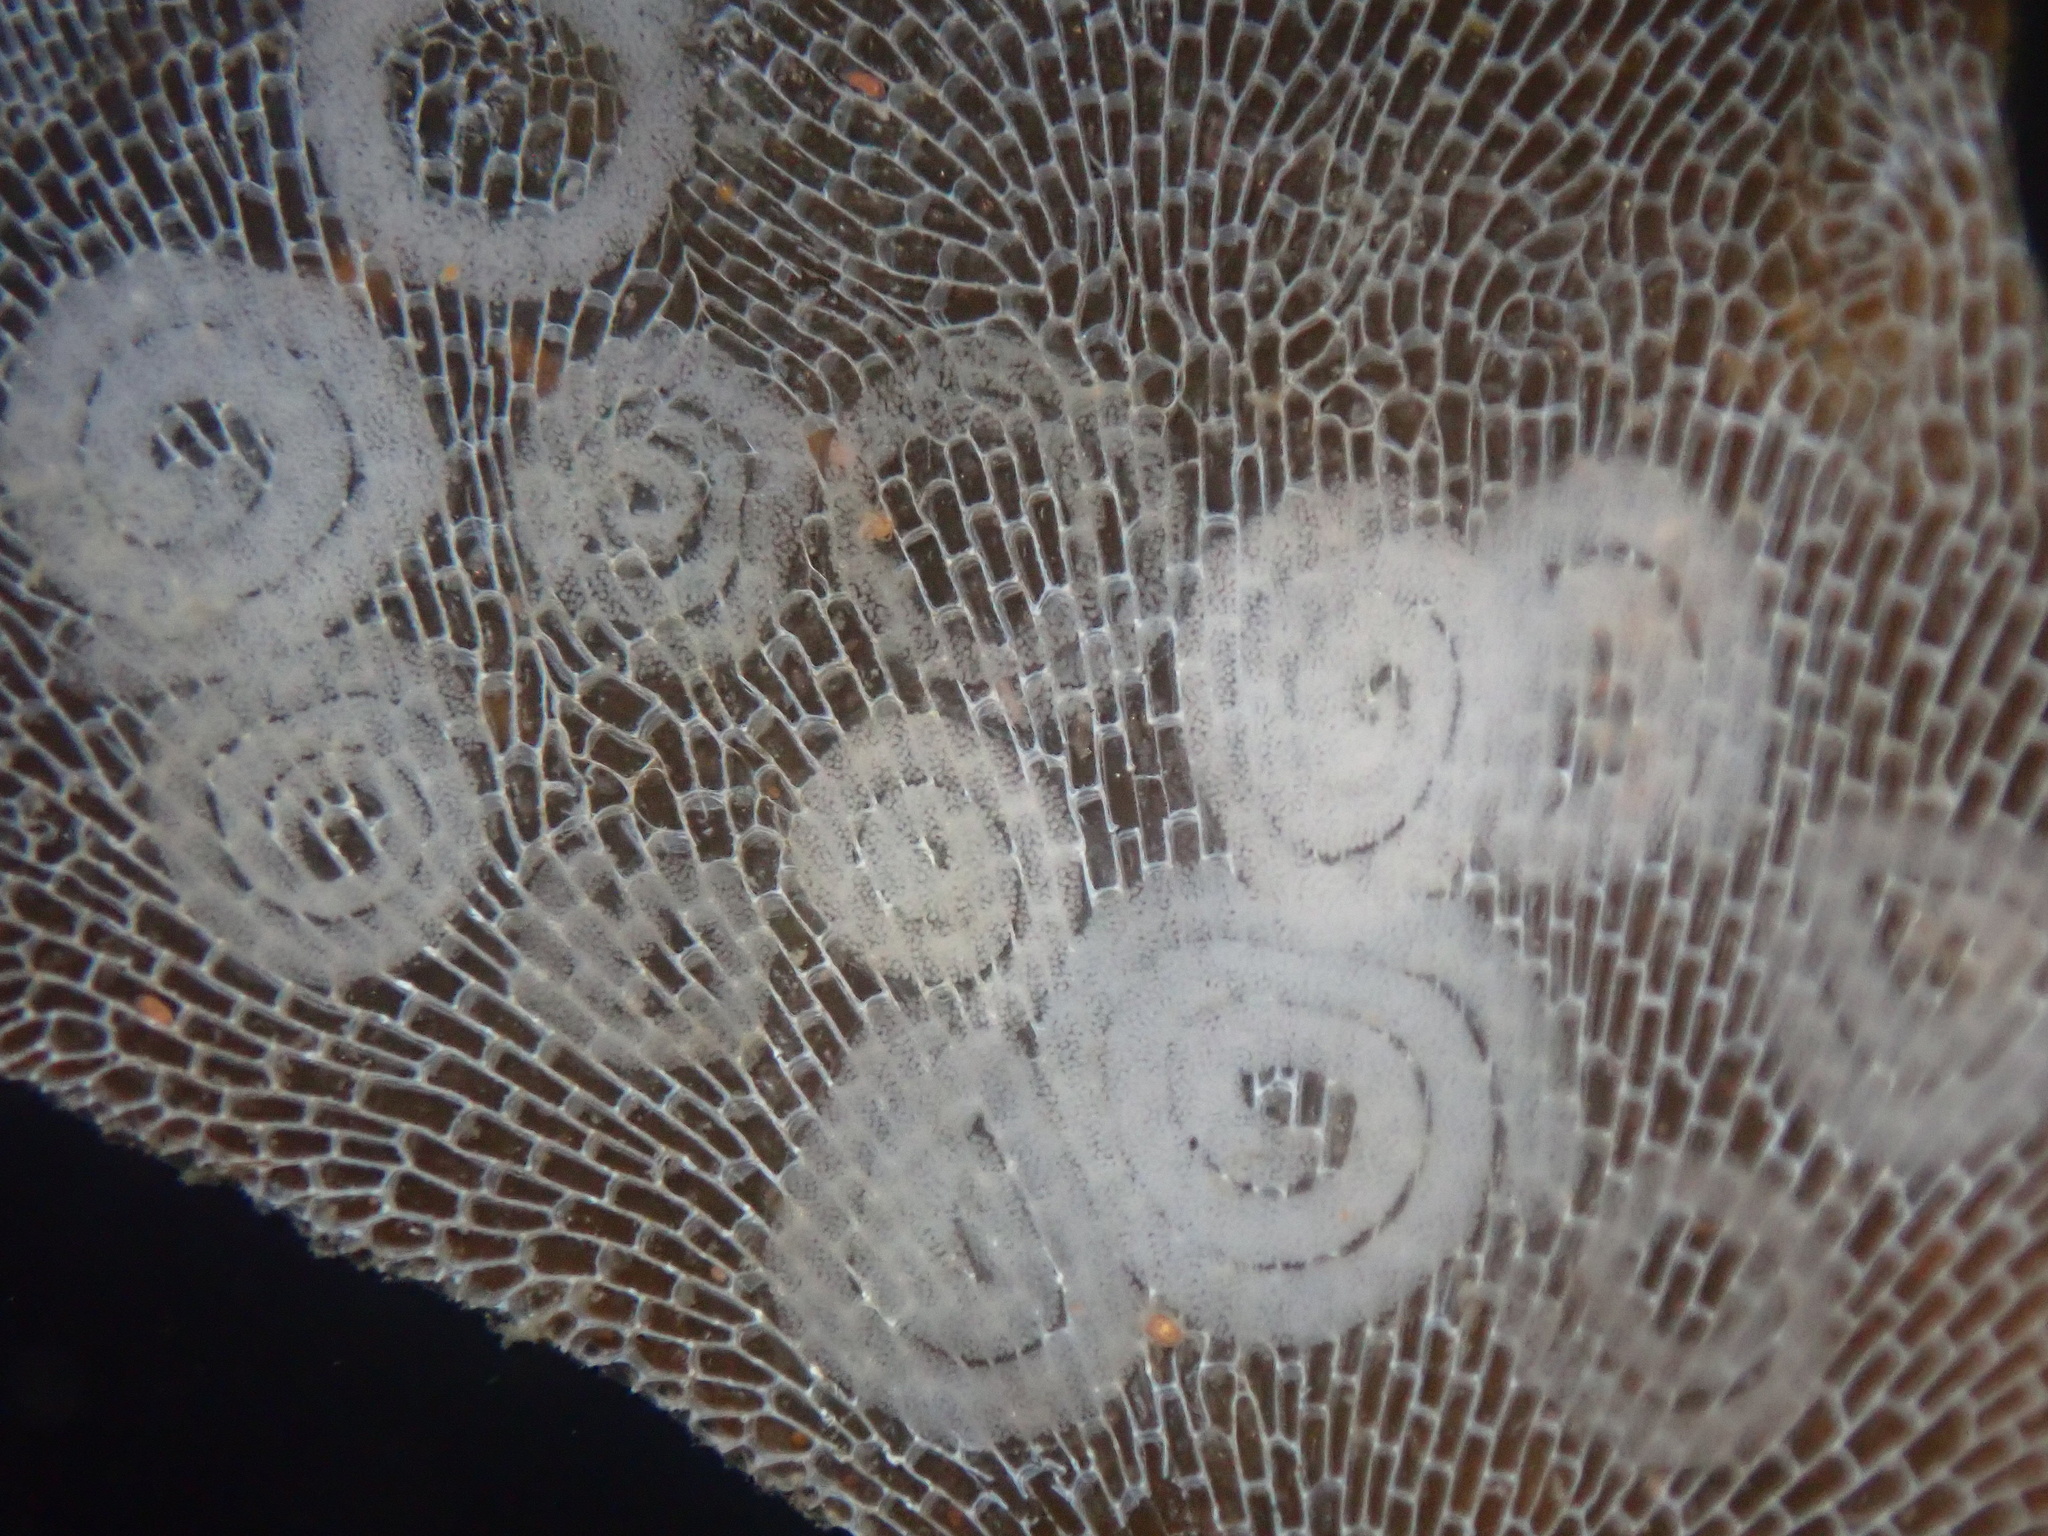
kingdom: Animalia
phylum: Mollusca
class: Gastropoda
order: Nudibranchia
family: Corambidae
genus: Corambe
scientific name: Corambe pacifica
